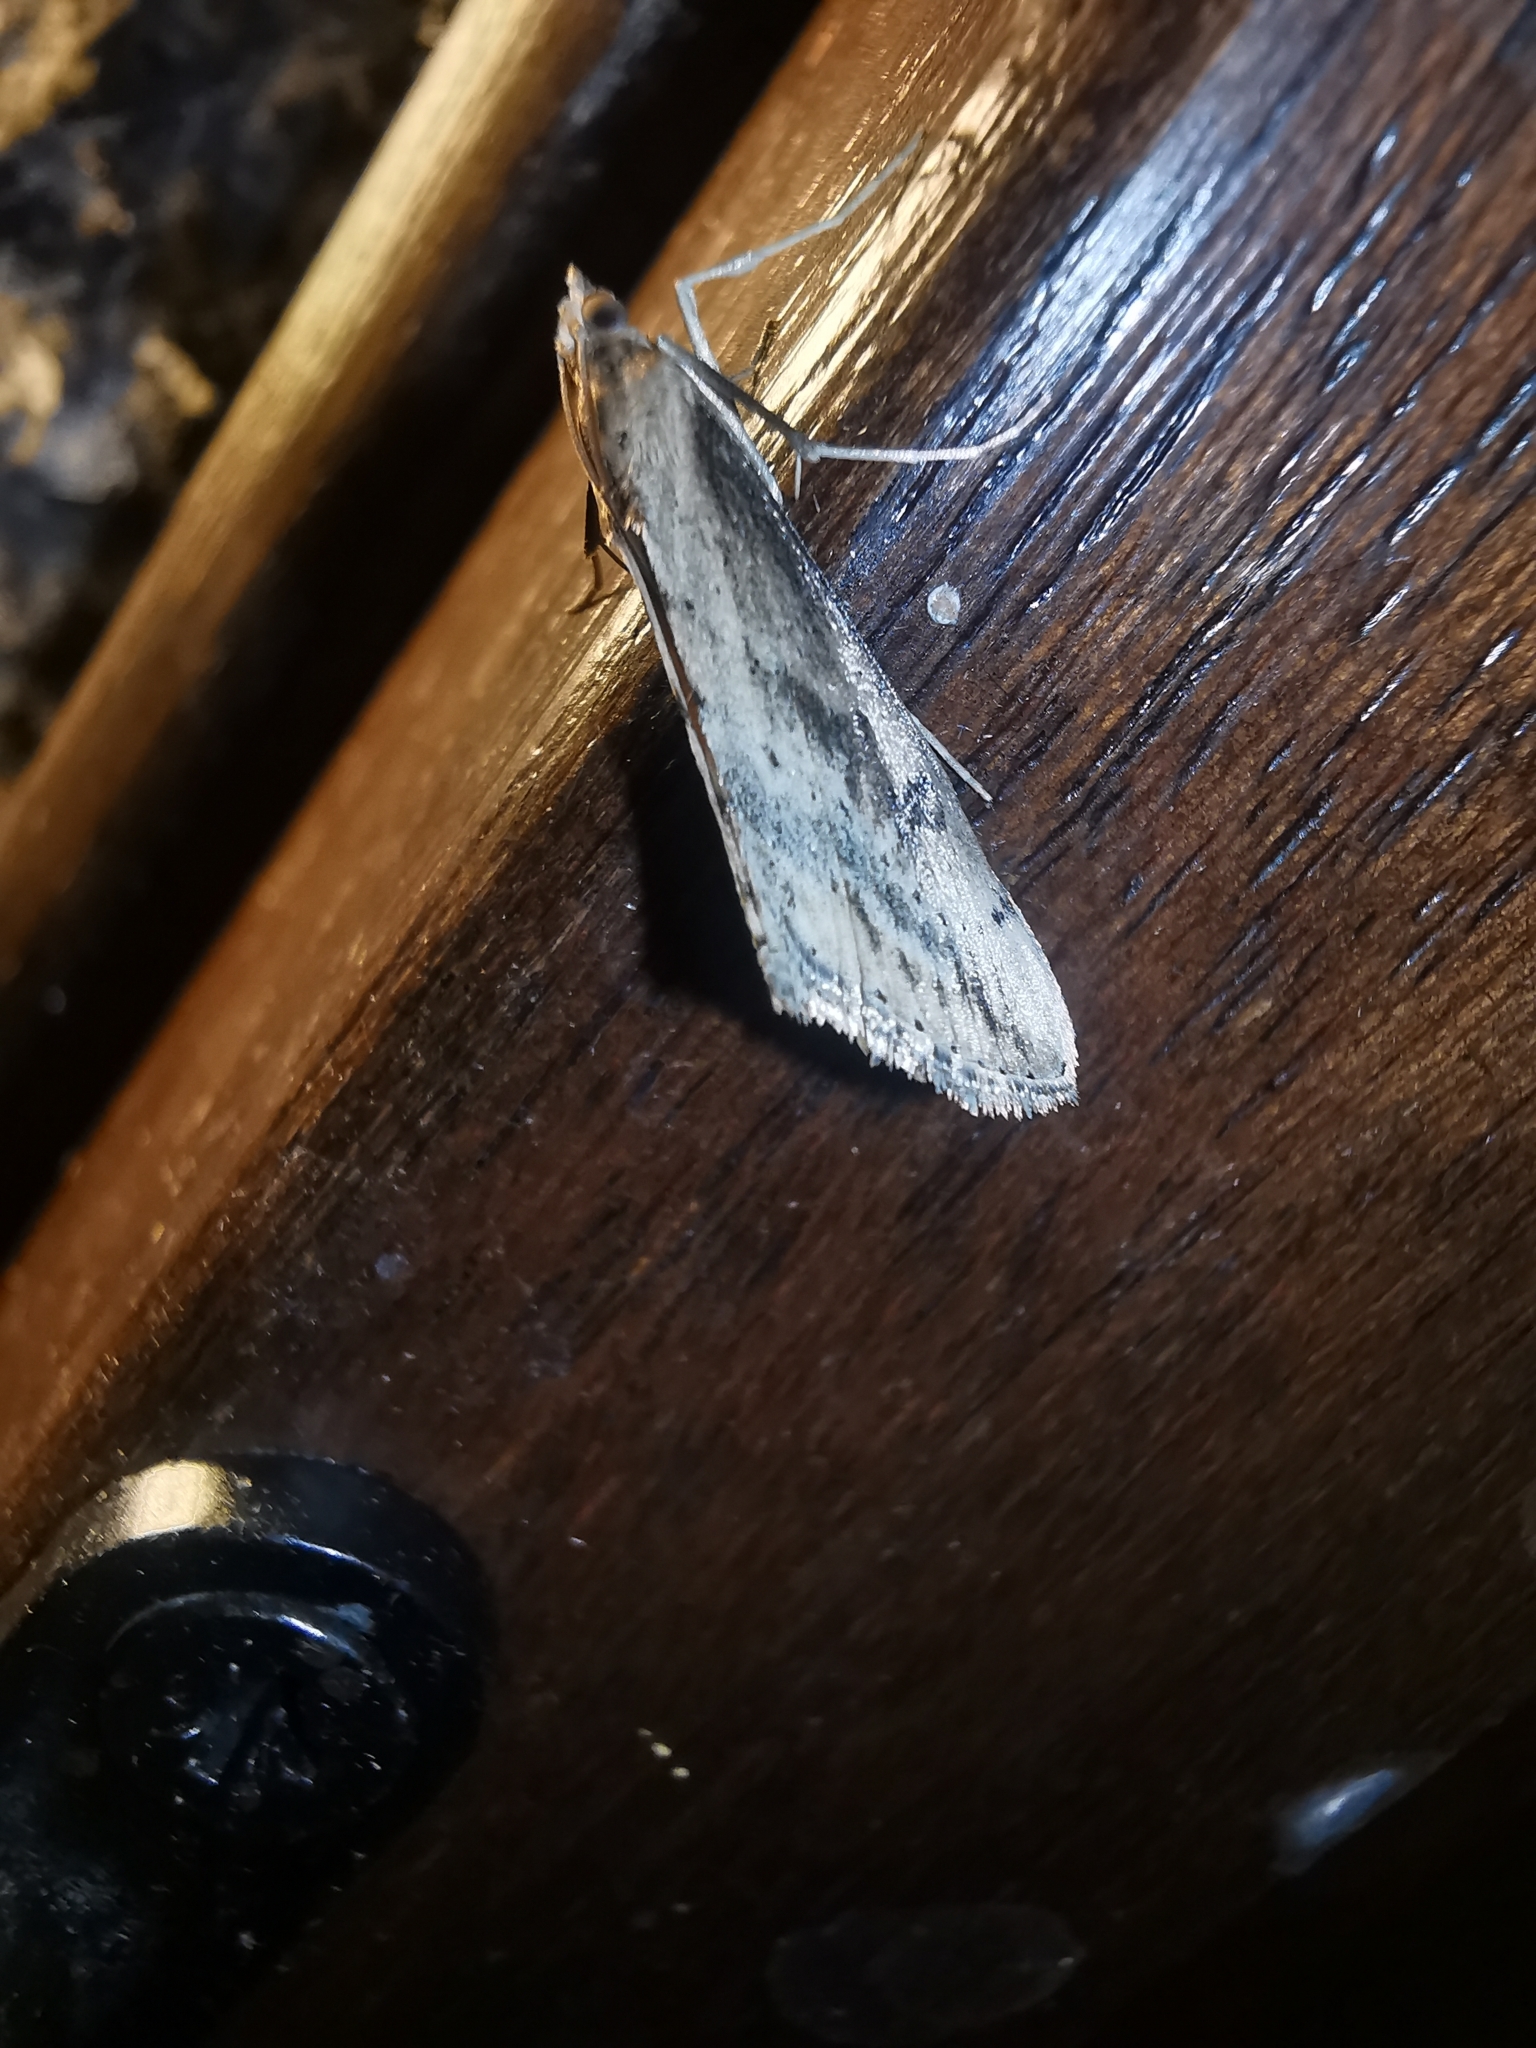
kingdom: Animalia
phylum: Arthropoda
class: Insecta
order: Lepidoptera
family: Crambidae
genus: Evergestis
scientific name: Evergestis isatidalis
